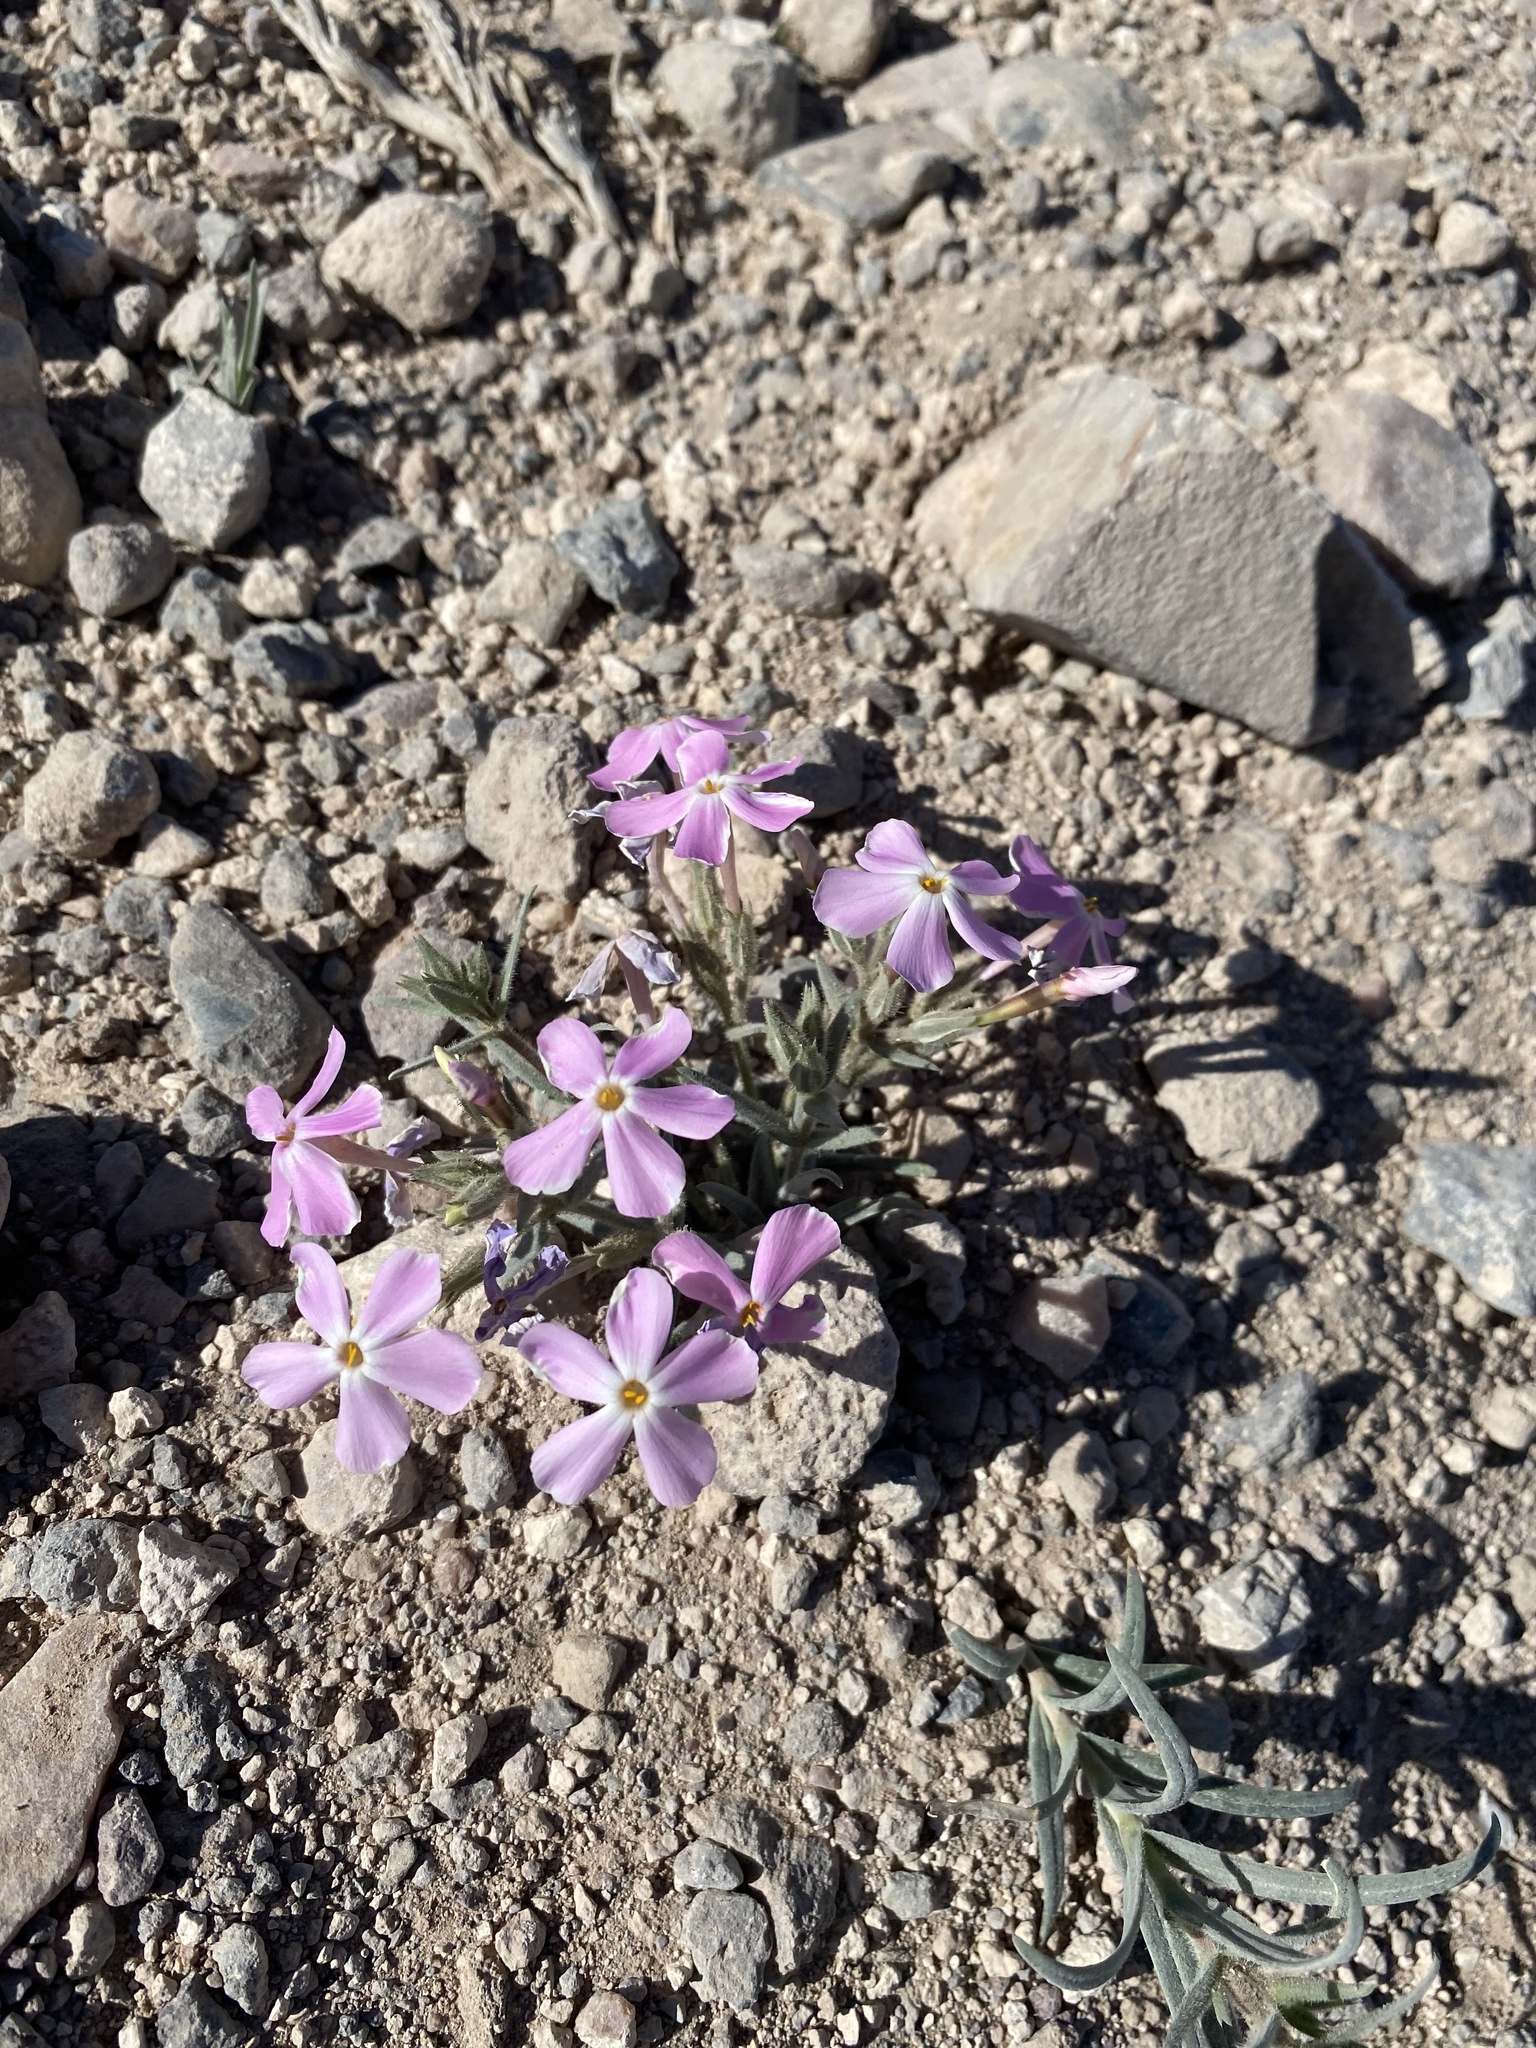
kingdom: Plantae
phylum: Tracheophyta
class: Magnoliopsida
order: Ericales
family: Polemoniaceae
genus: Phlox
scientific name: Phlox longifolia
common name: Longleaf phlox
